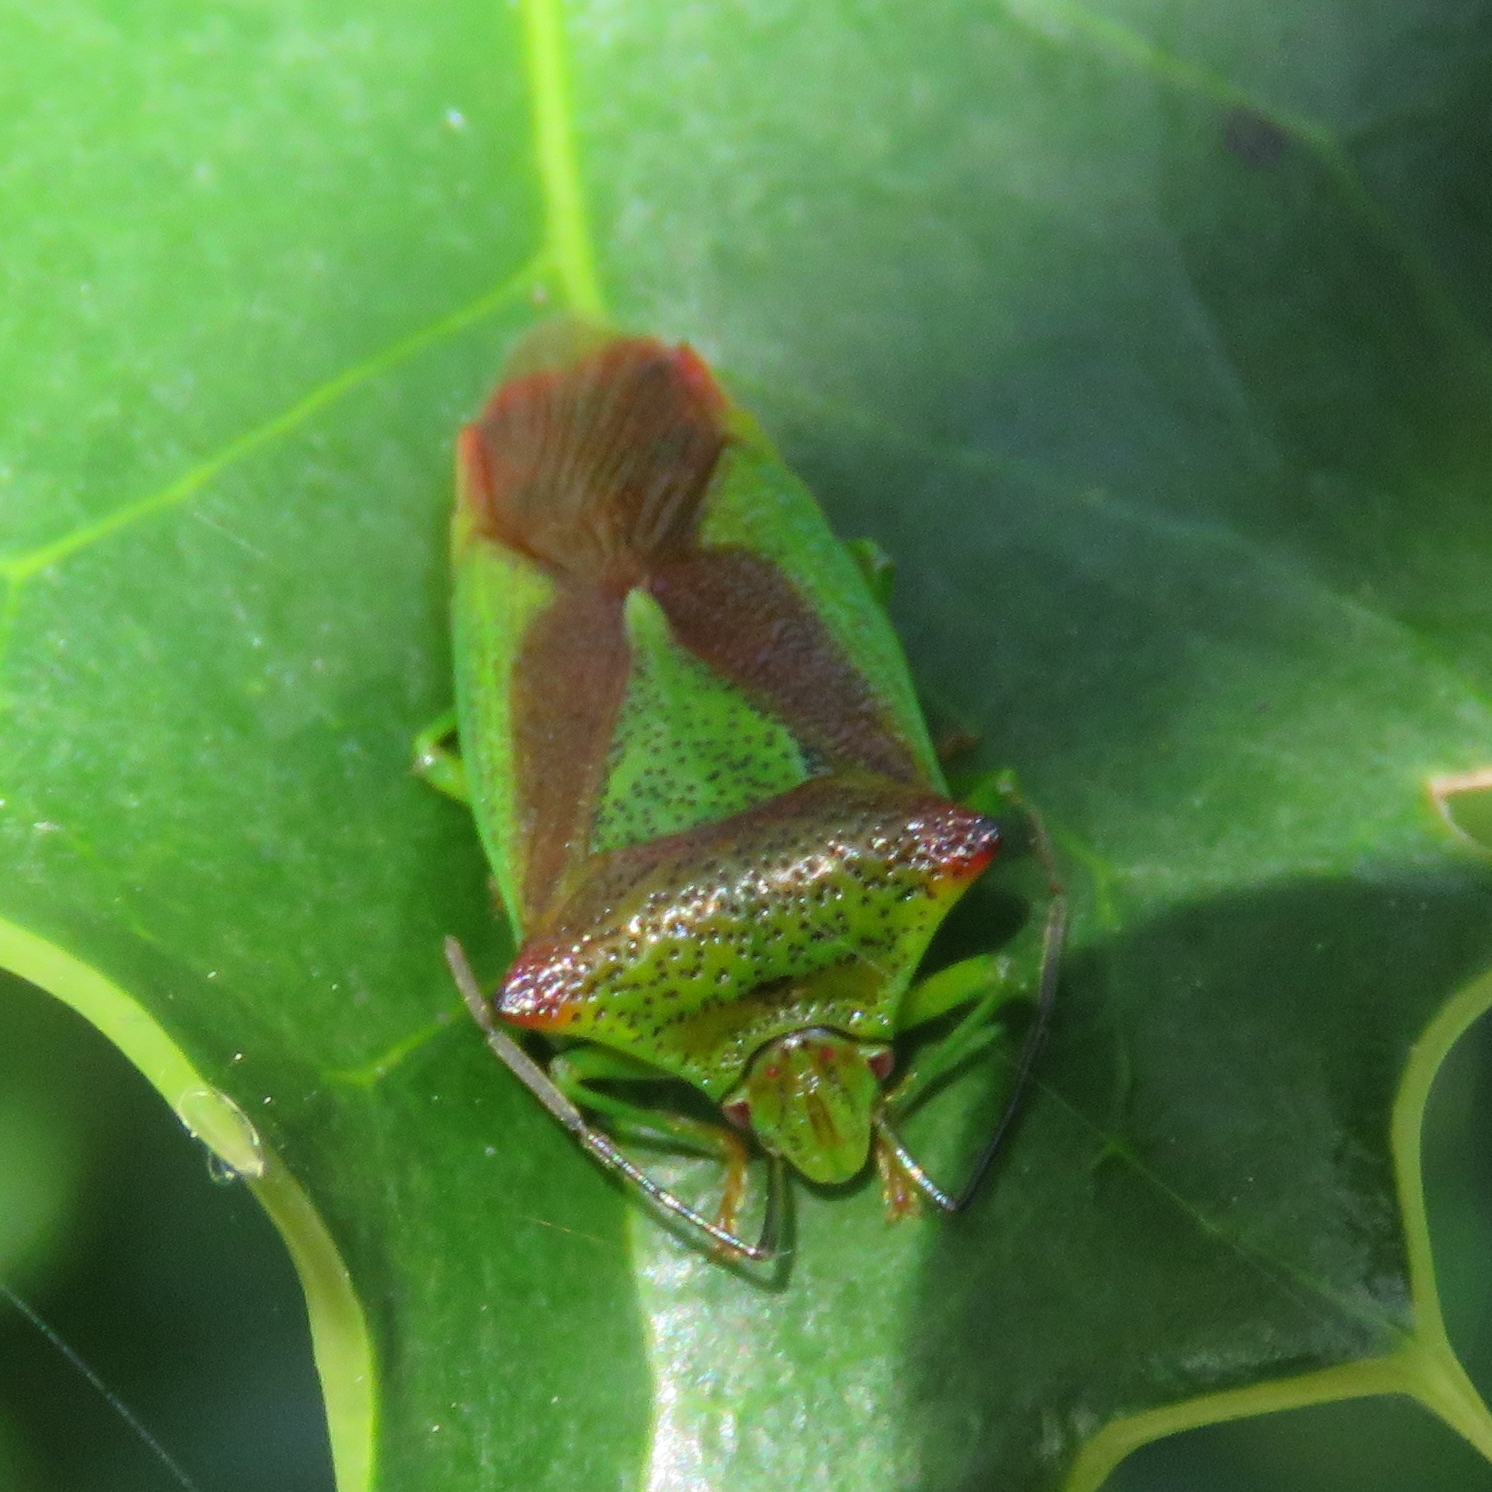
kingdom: Animalia
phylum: Arthropoda
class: Insecta
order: Hemiptera
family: Acanthosomatidae
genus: Acanthosoma
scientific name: Acanthosoma haemorrhoidale
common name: Hawthorn shieldbug
